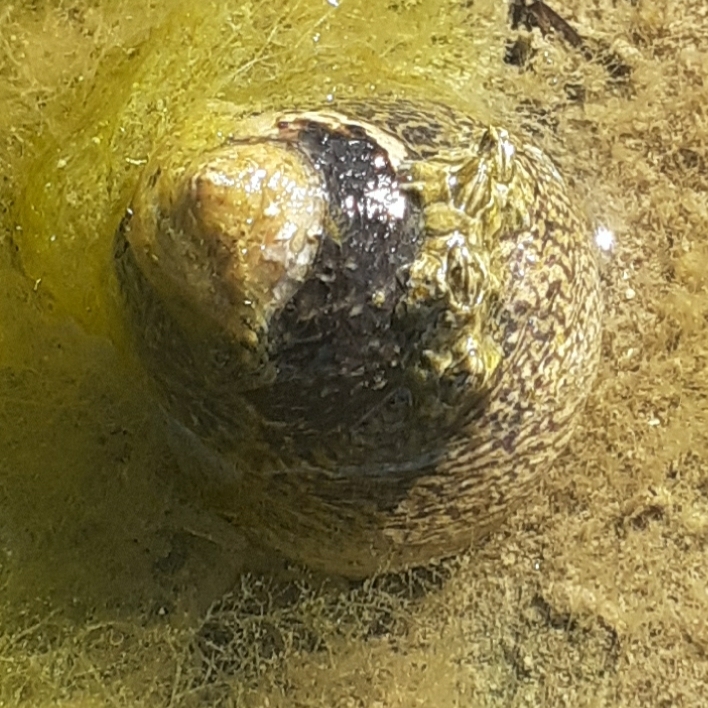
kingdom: Animalia
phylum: Mollusca
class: Gastropoda
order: Trochida
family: Trochidae
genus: Phorcus
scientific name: Phorcus lineatus
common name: Toothed top shell
